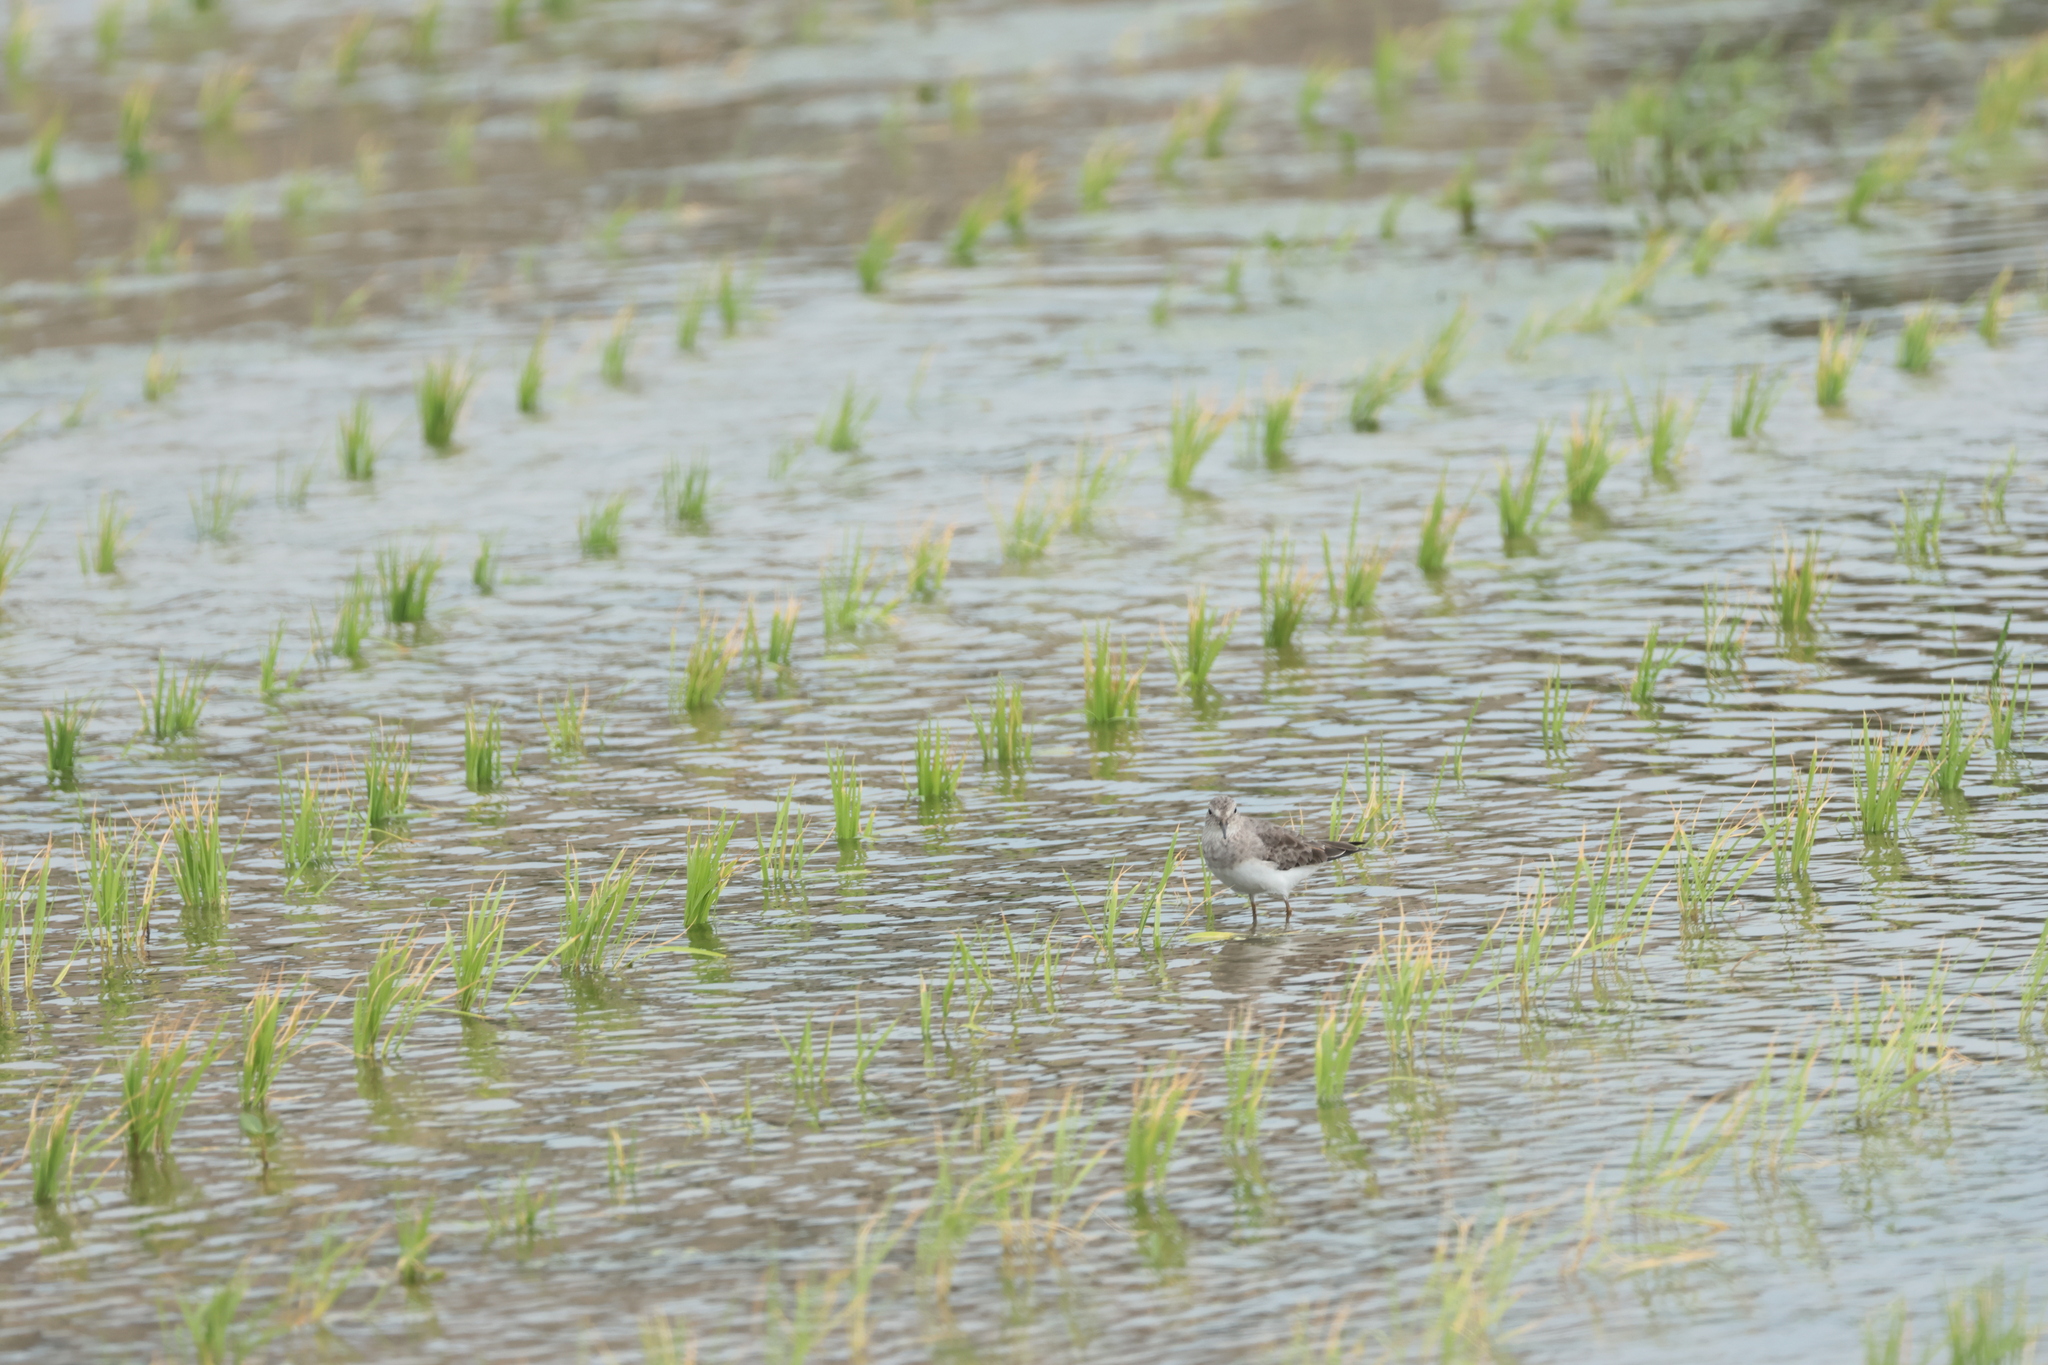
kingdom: Animalia
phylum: Chordata
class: Aves
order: Charadriiformes
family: Scolopacidae
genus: Calidris
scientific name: Calidris temminckii
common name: Temminck's stint
